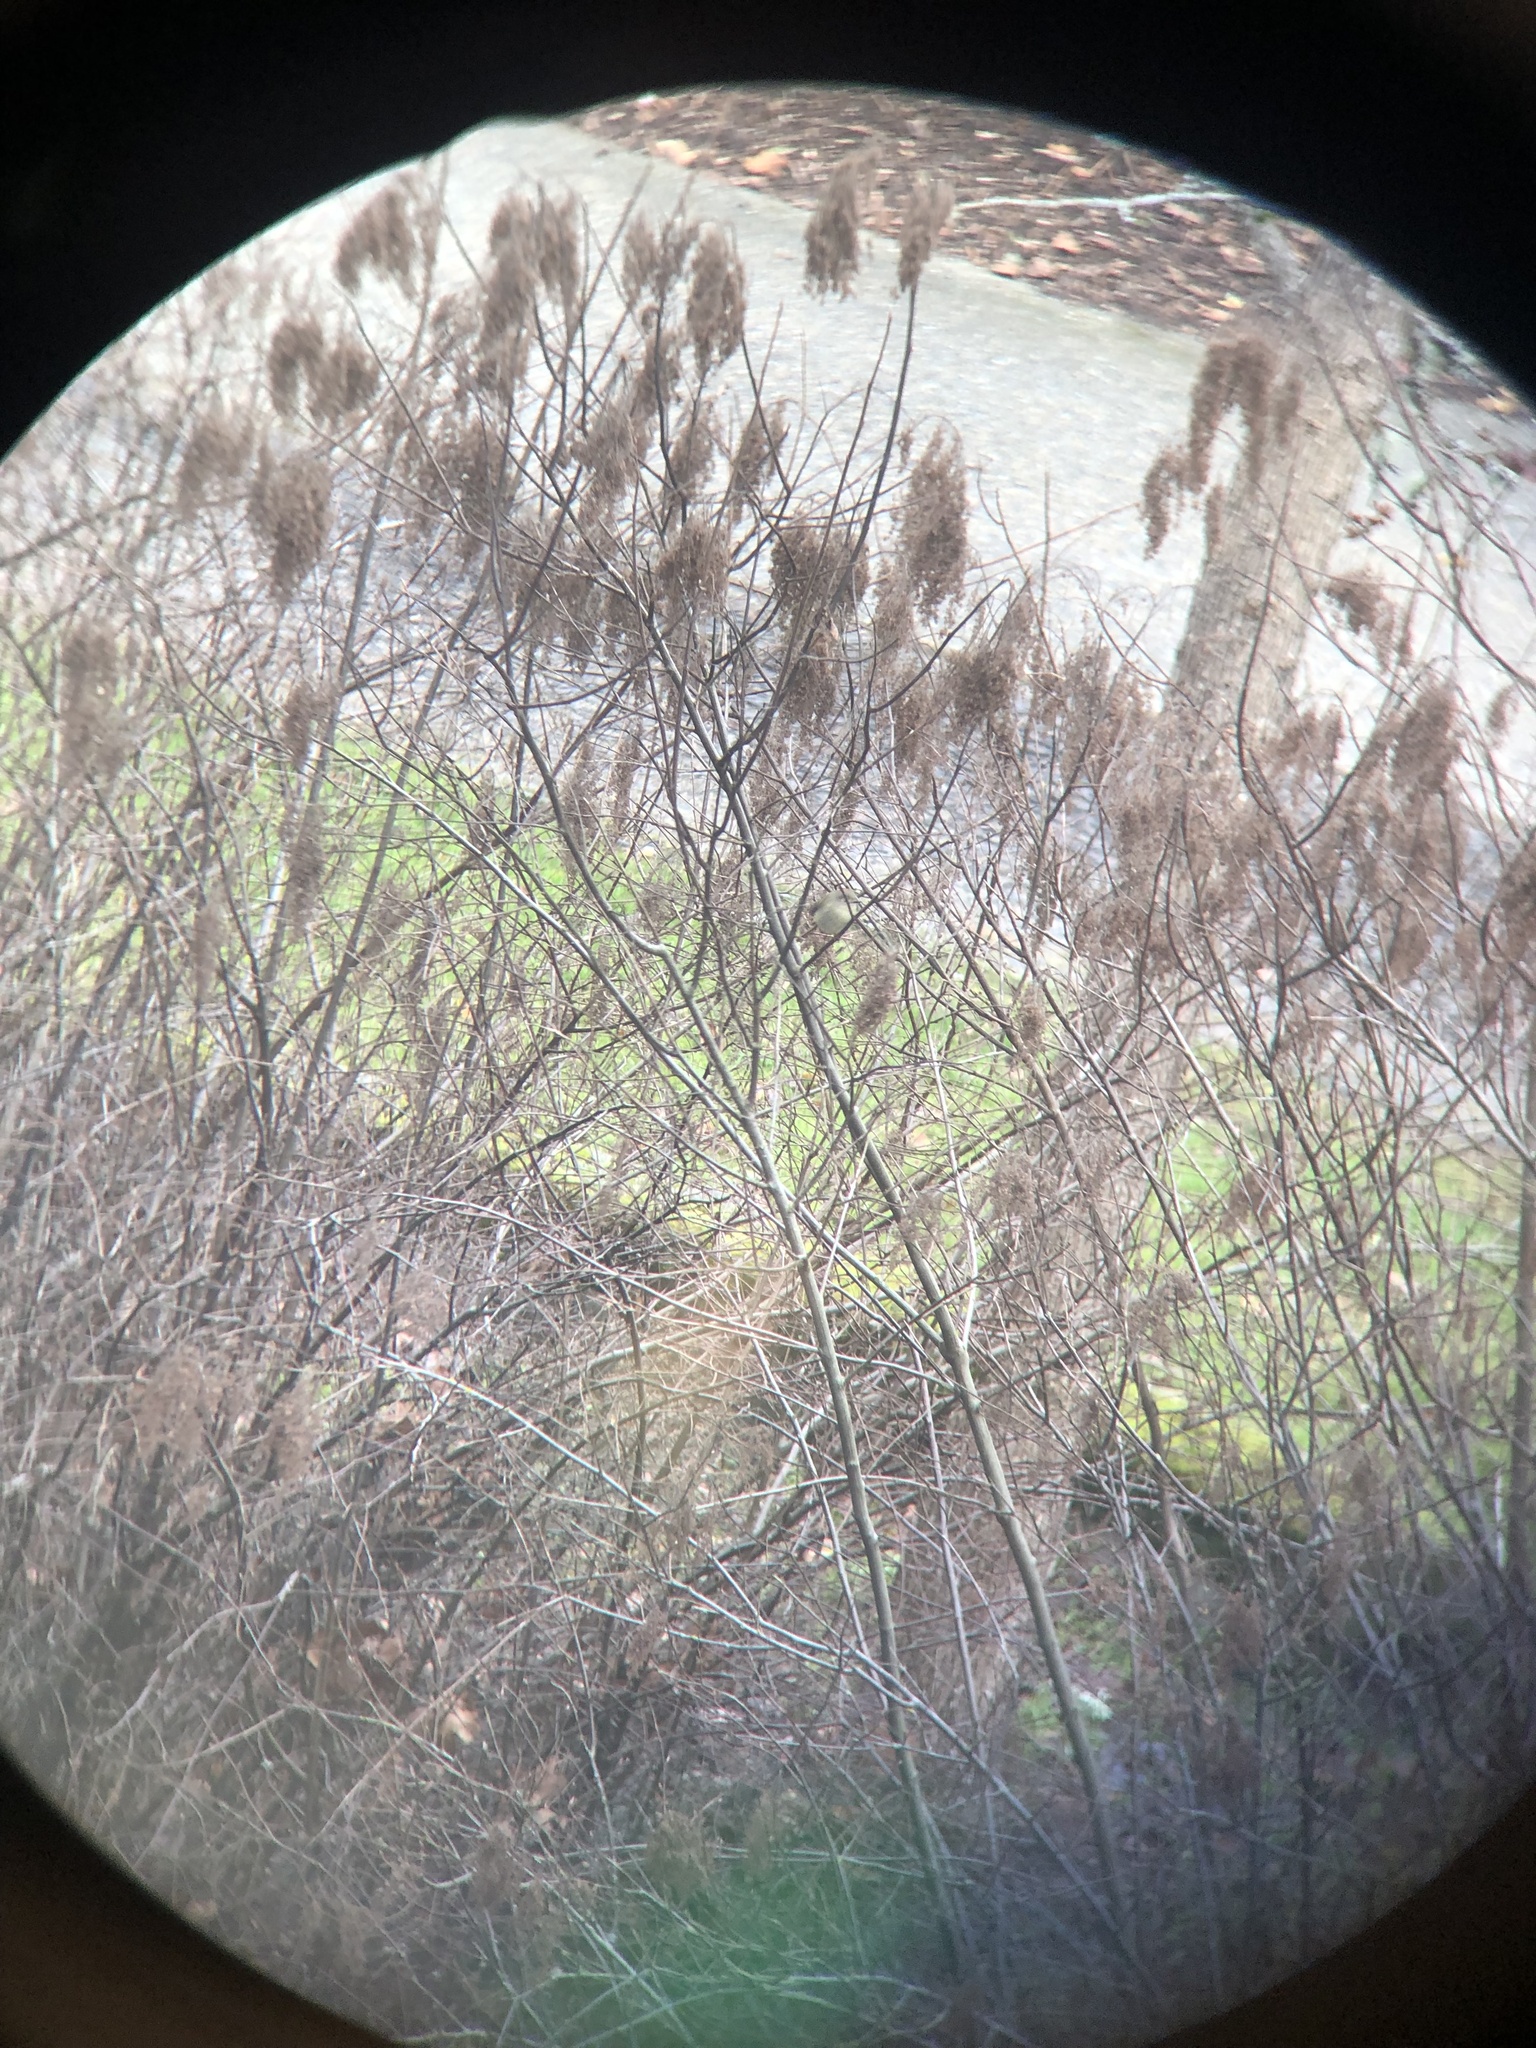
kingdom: Animalia
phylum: Chordata
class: Aves
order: Passeriformes
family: Regulidae
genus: Regulus
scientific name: Regulus calendula
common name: Ruby-crowned kinglet
